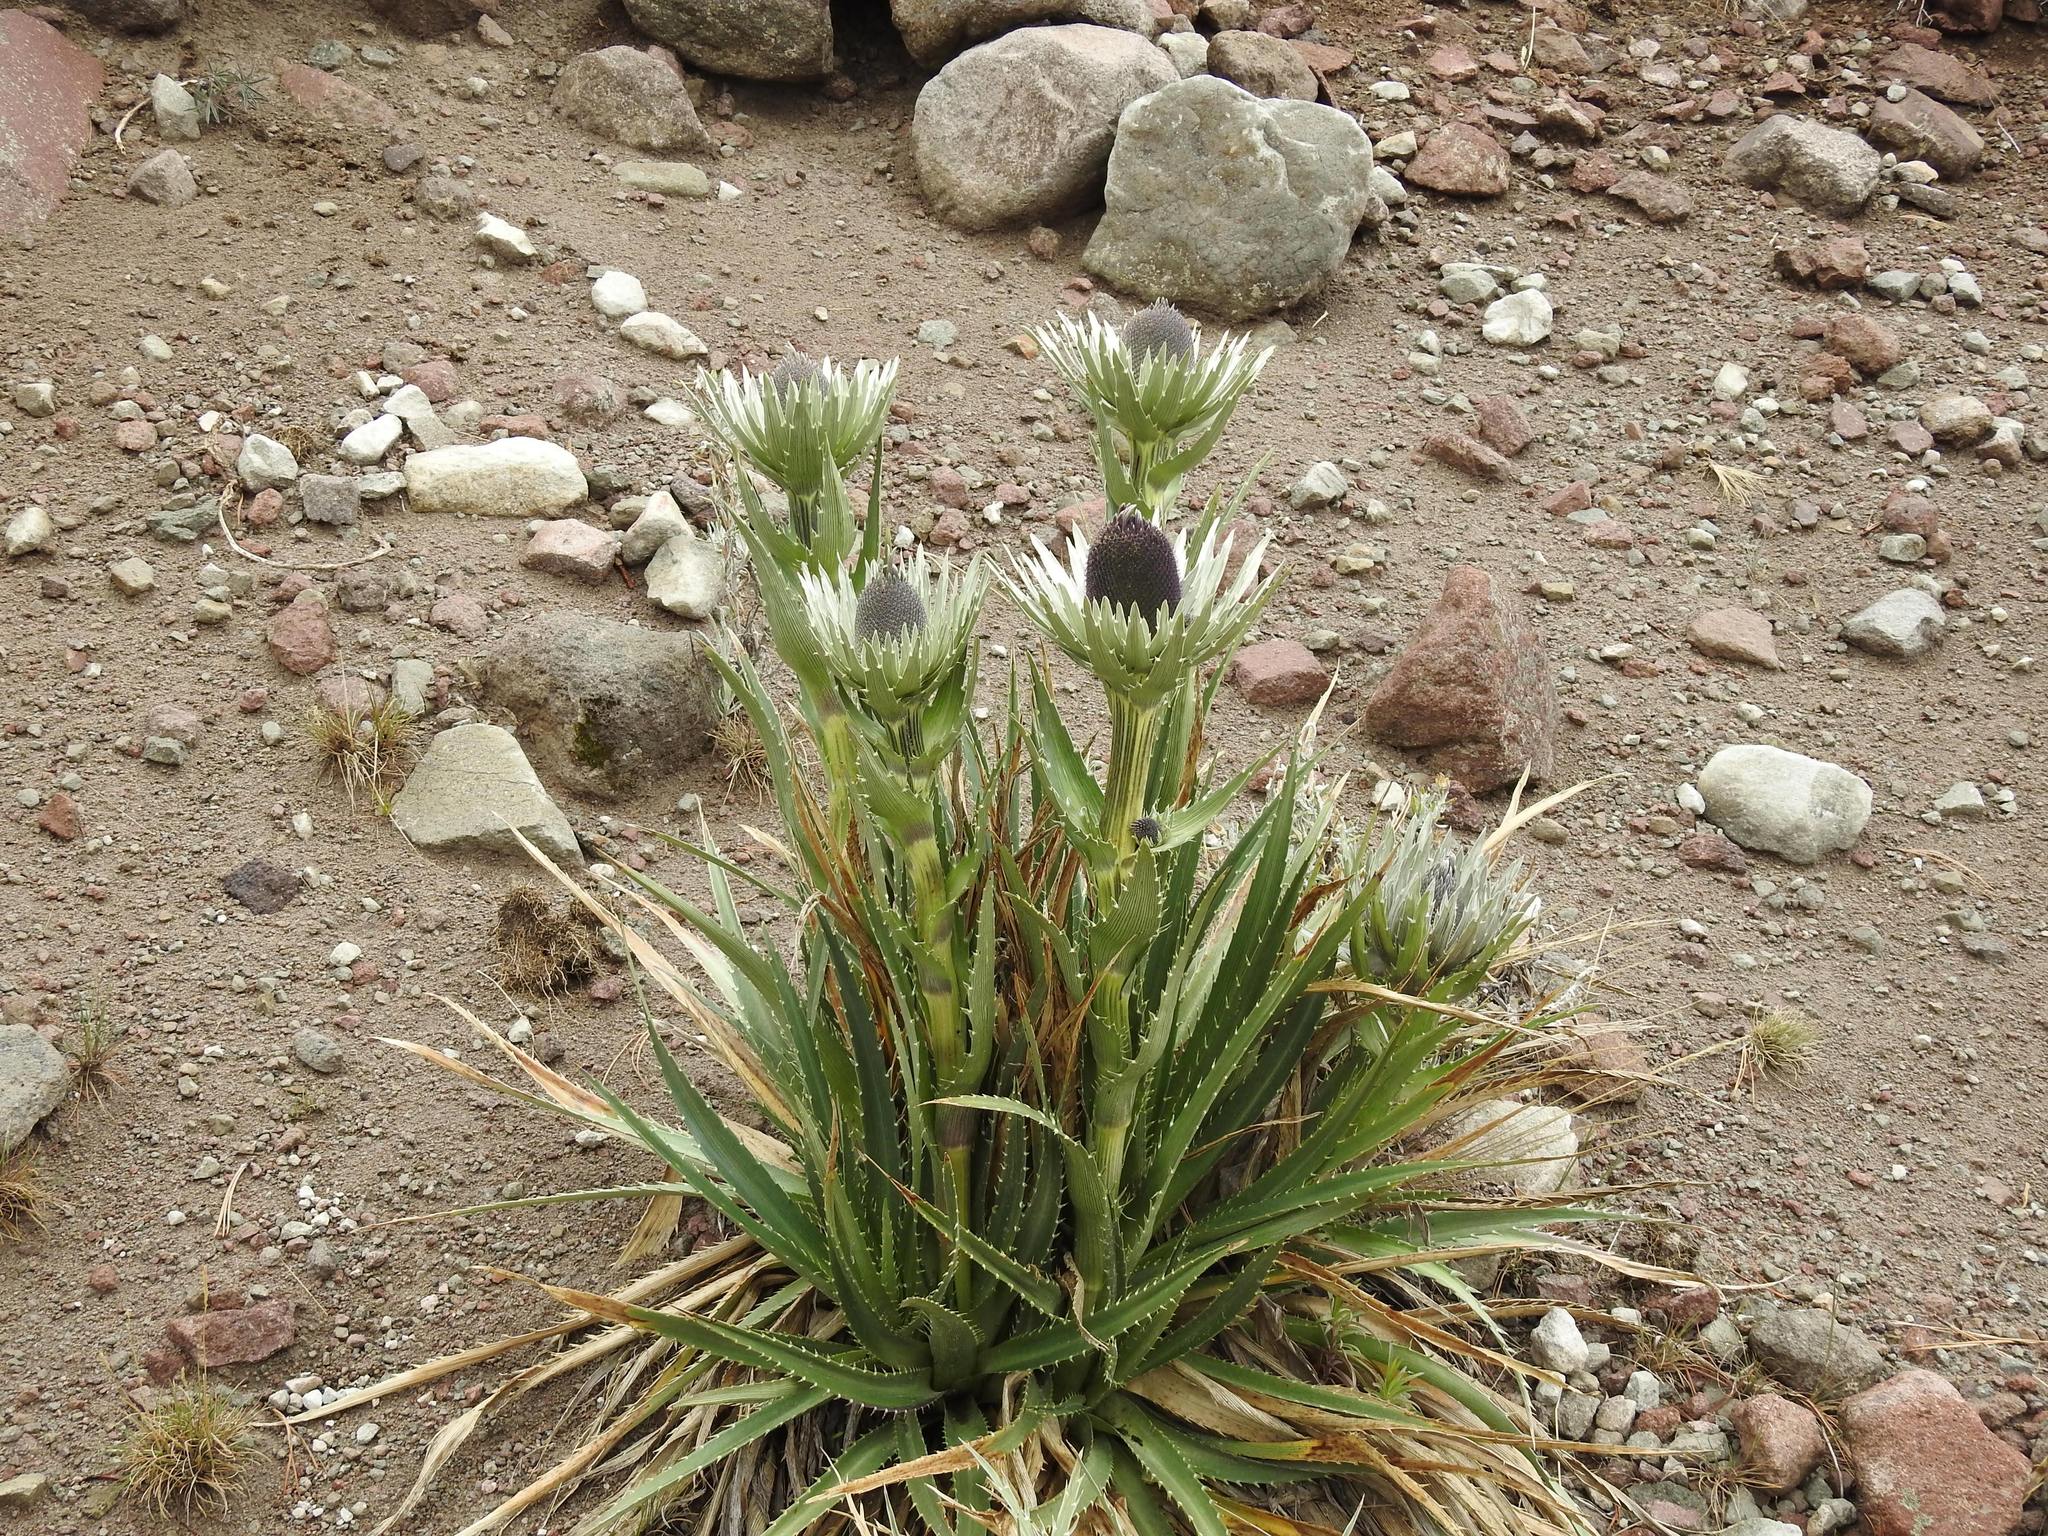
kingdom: Plantae
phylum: Tracheophyta
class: Magnoliopsida
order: Apiales
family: Apiaceae
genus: Eryngium
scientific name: Eryngium proteiflorum
